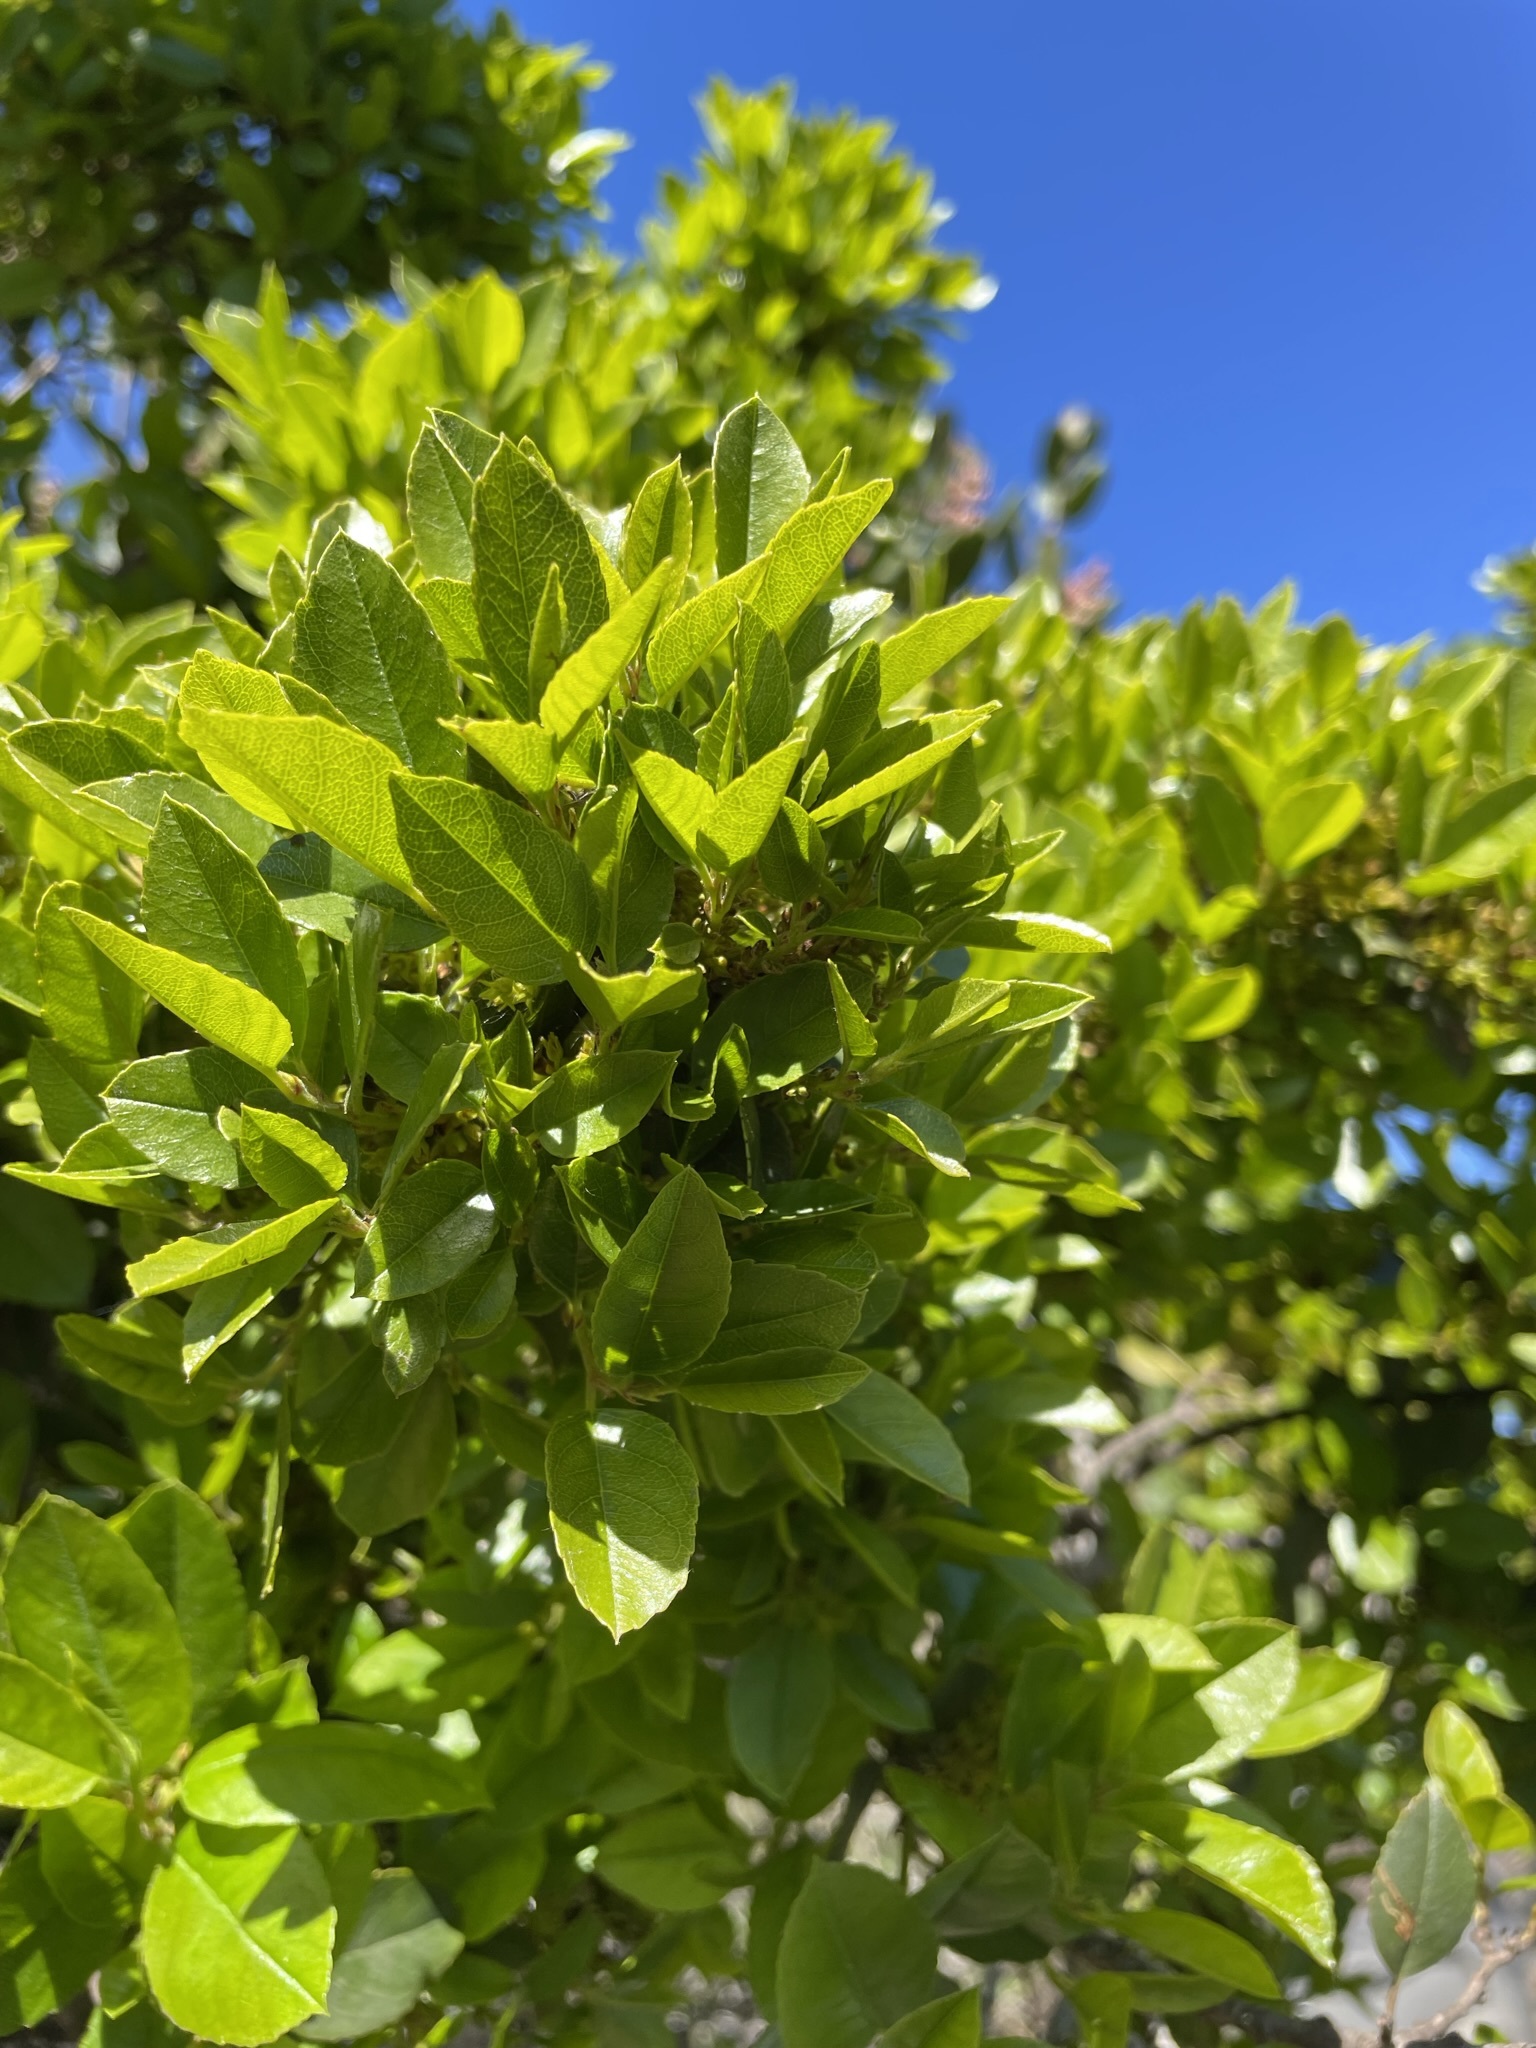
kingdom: Plantae
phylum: Tracheophyta
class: Magnoliopsida
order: Rosales
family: Rhamnaceae
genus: Endotropis
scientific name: Endotropis crocea
